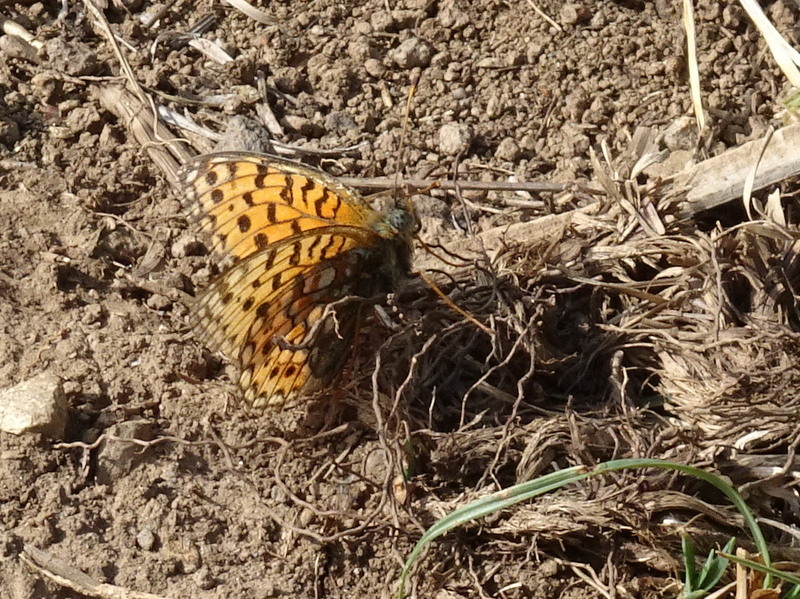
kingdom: Animalia
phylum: Arthropoda
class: Insecta
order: Lepidoptera
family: Nymphalidae
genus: Fabriciana
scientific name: Fabriciana niobe
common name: Niobe fritillary
